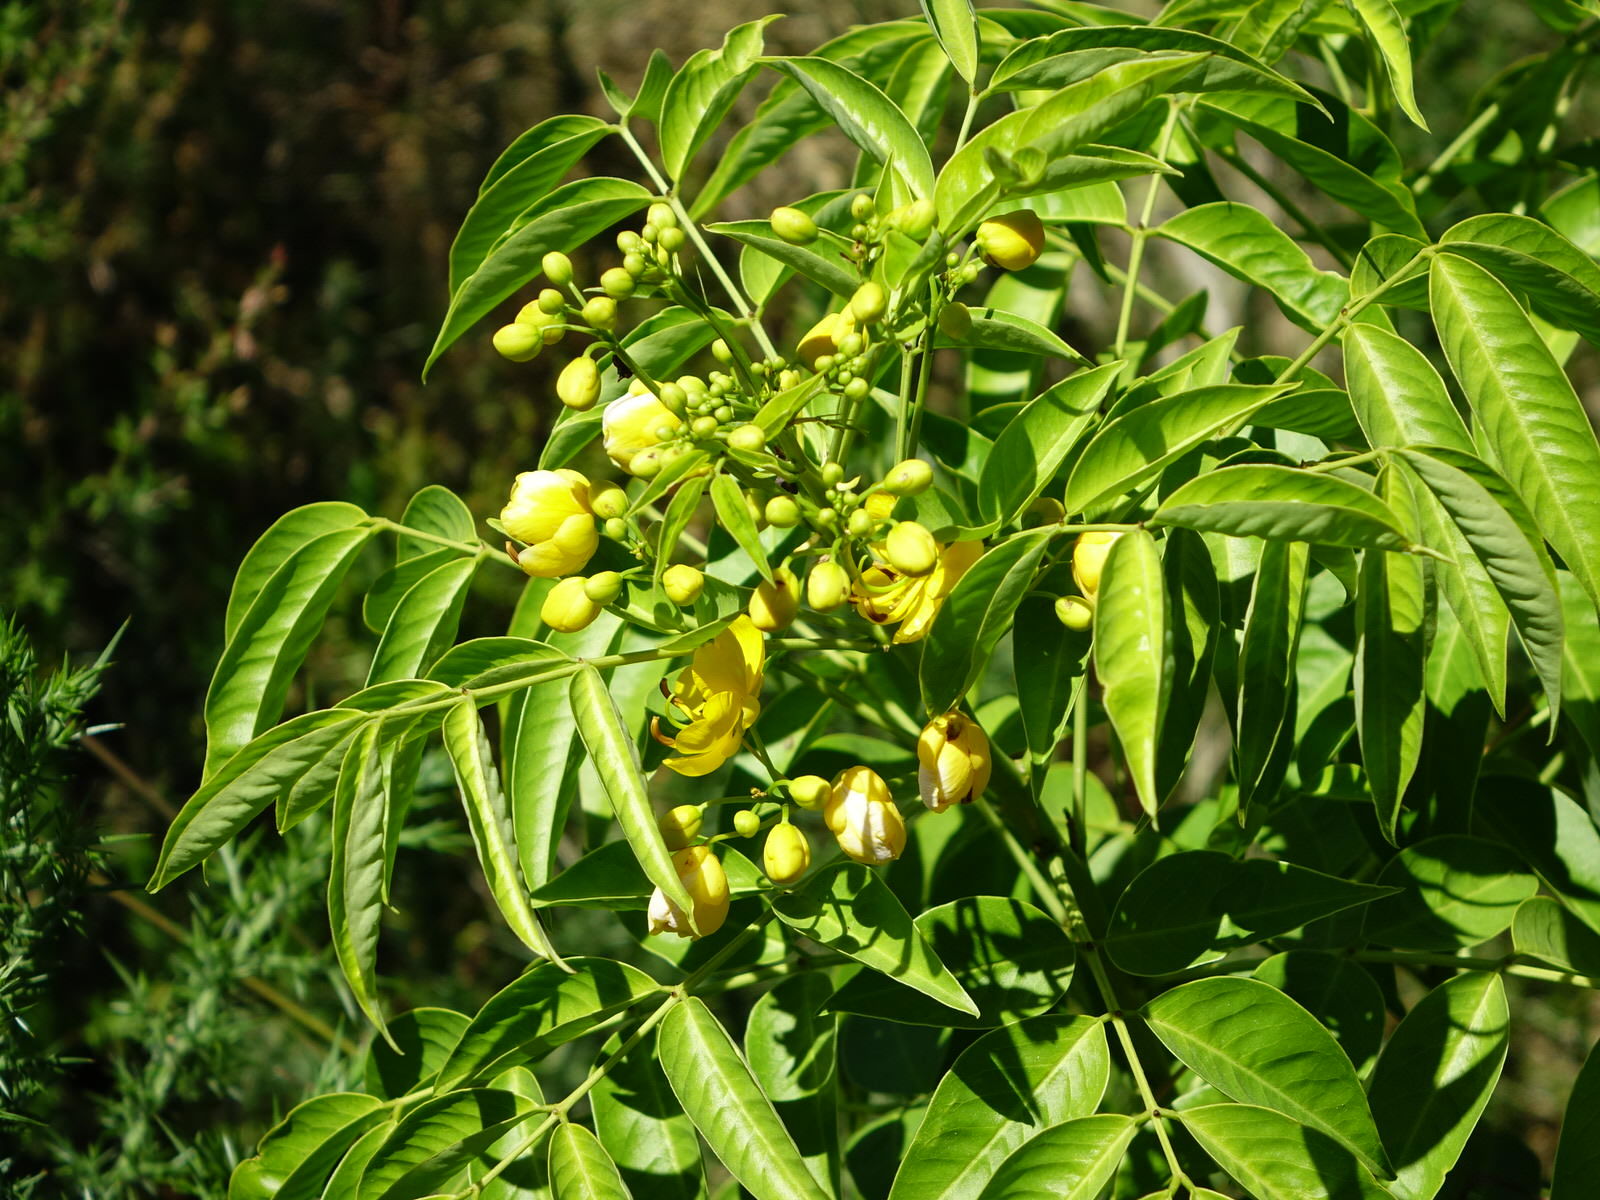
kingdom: Plantae
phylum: Tracheophyta
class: Magnoliopsida
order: Fabales
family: Fabaceae
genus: Senna
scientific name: Senna septemtrionalis
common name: Arsenic bush
